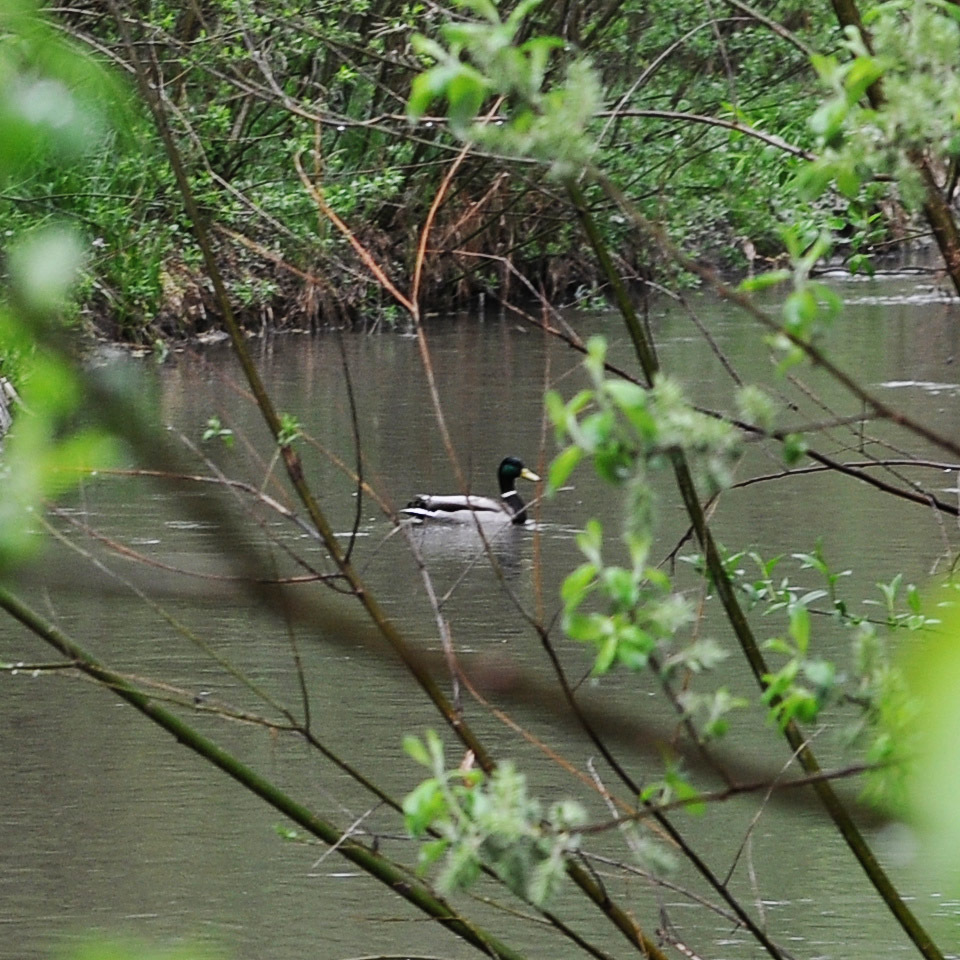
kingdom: Animalia
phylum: Chordata
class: Aves
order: Anseriformes
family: Anatidae
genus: Anas
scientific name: Anas platyrhynchos
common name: Mallard
